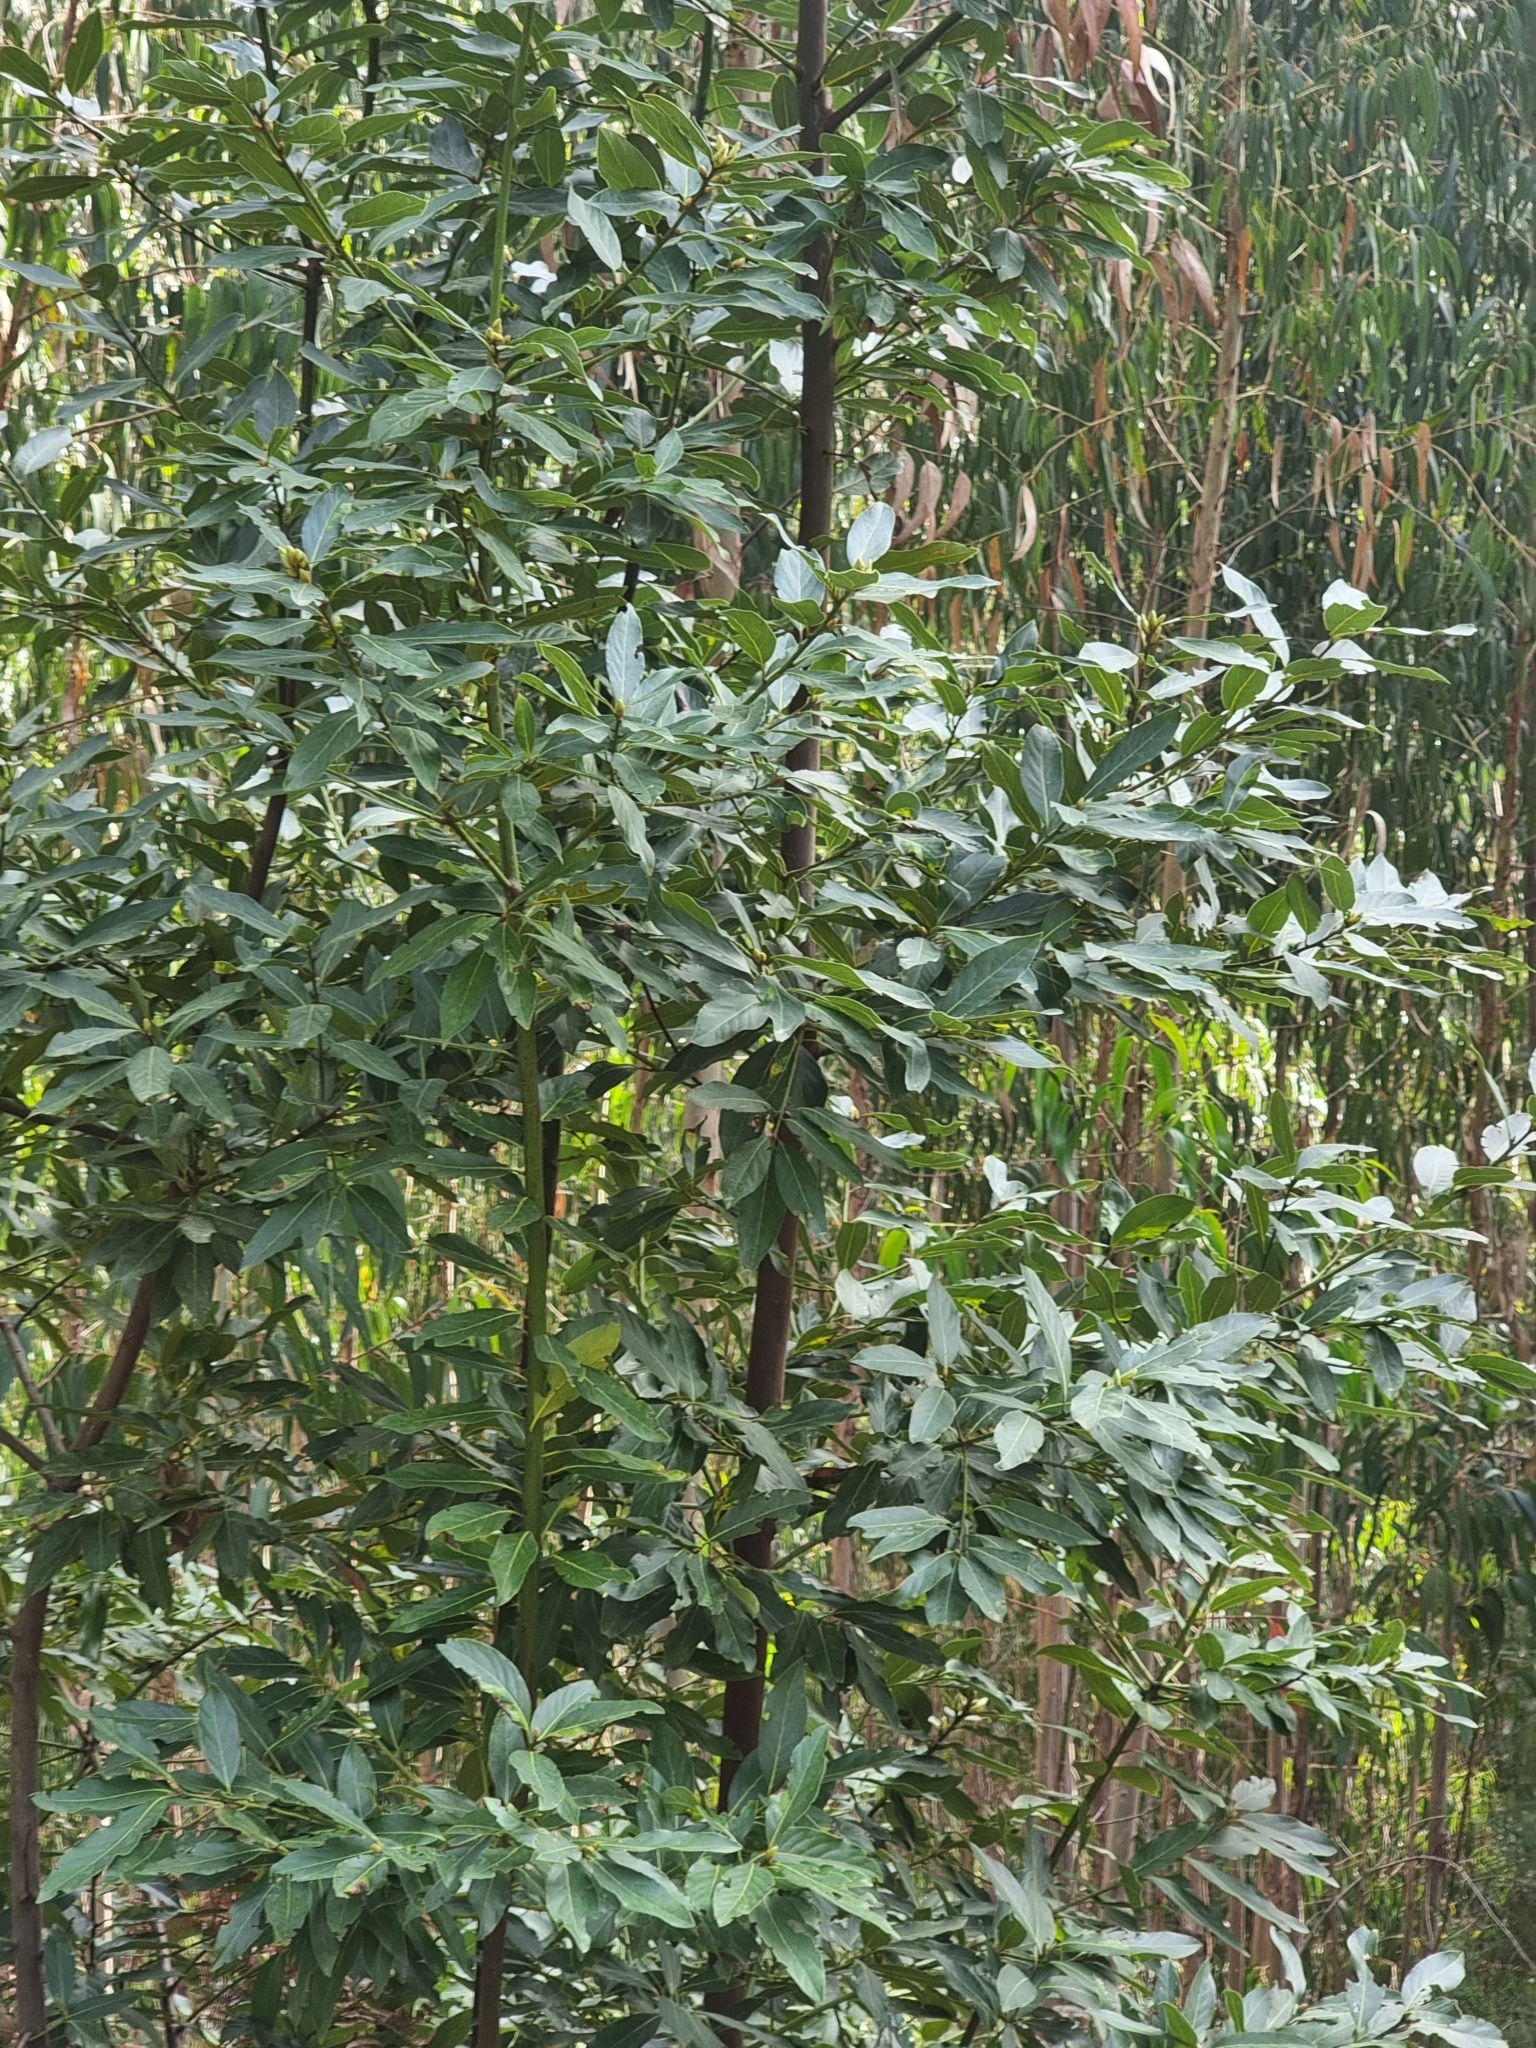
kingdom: Plantae
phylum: Tracheophyta
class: Magnoliopsida
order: Laurales
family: Lauraceae
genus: Laurus
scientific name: Laurus novocanariensis
